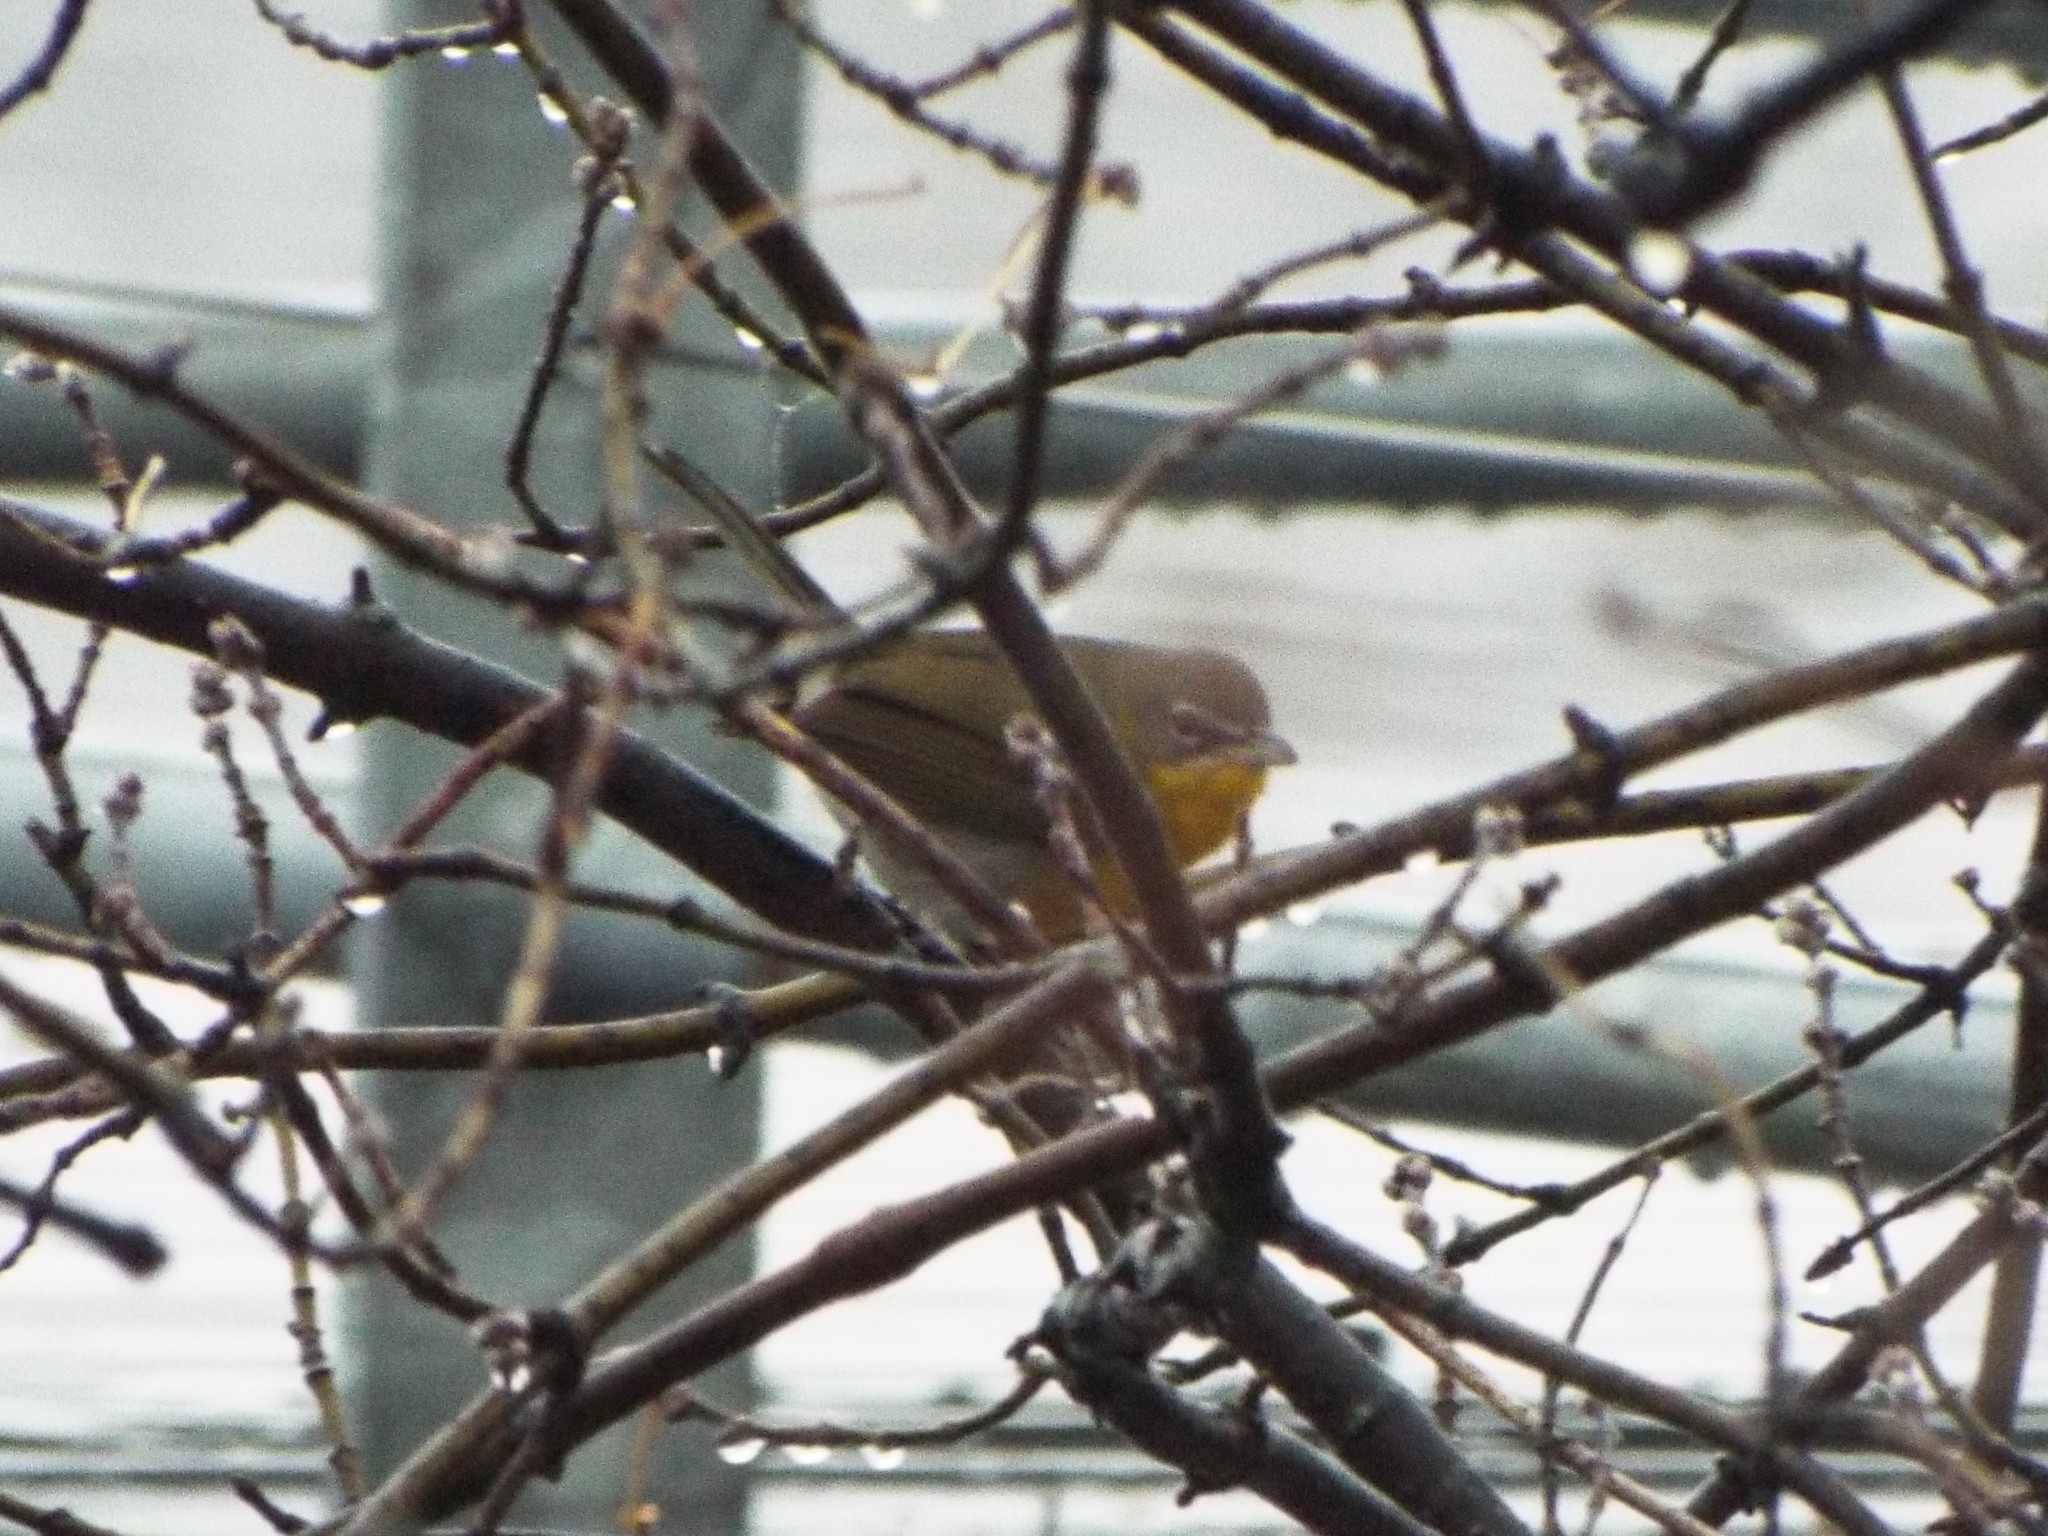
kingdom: Animalia
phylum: Chordata
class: Aves
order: Passeriformes
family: Parulidae
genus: Icteria
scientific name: Icteria virens
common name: Yellow-breasted chat
